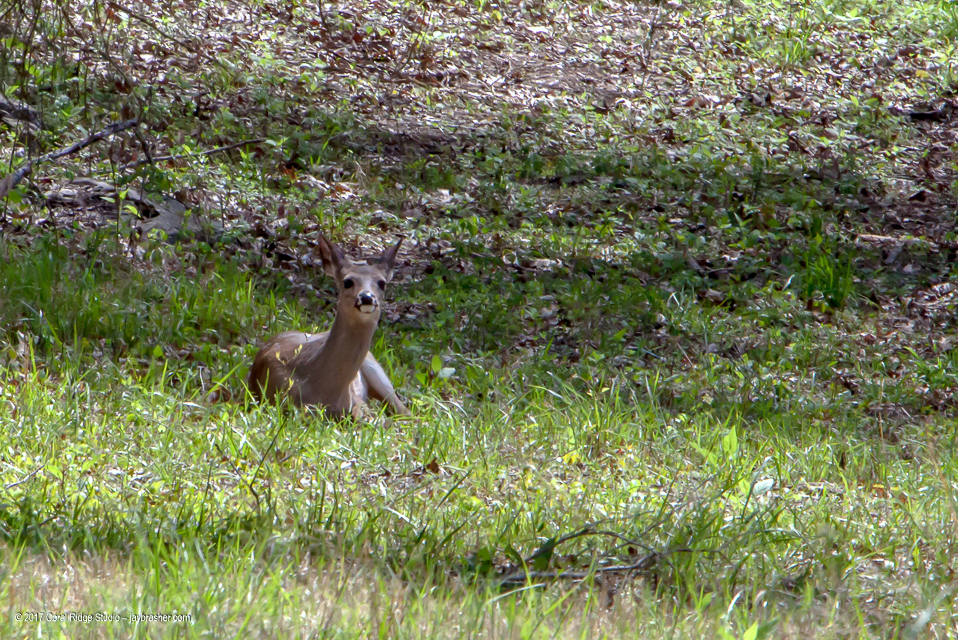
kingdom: Animalia
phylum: Chordata
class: Mammalia
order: Artiodactyla
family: Cervidae
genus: Odocoileus
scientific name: Odocoileus virginianus
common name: White-tailed deer
